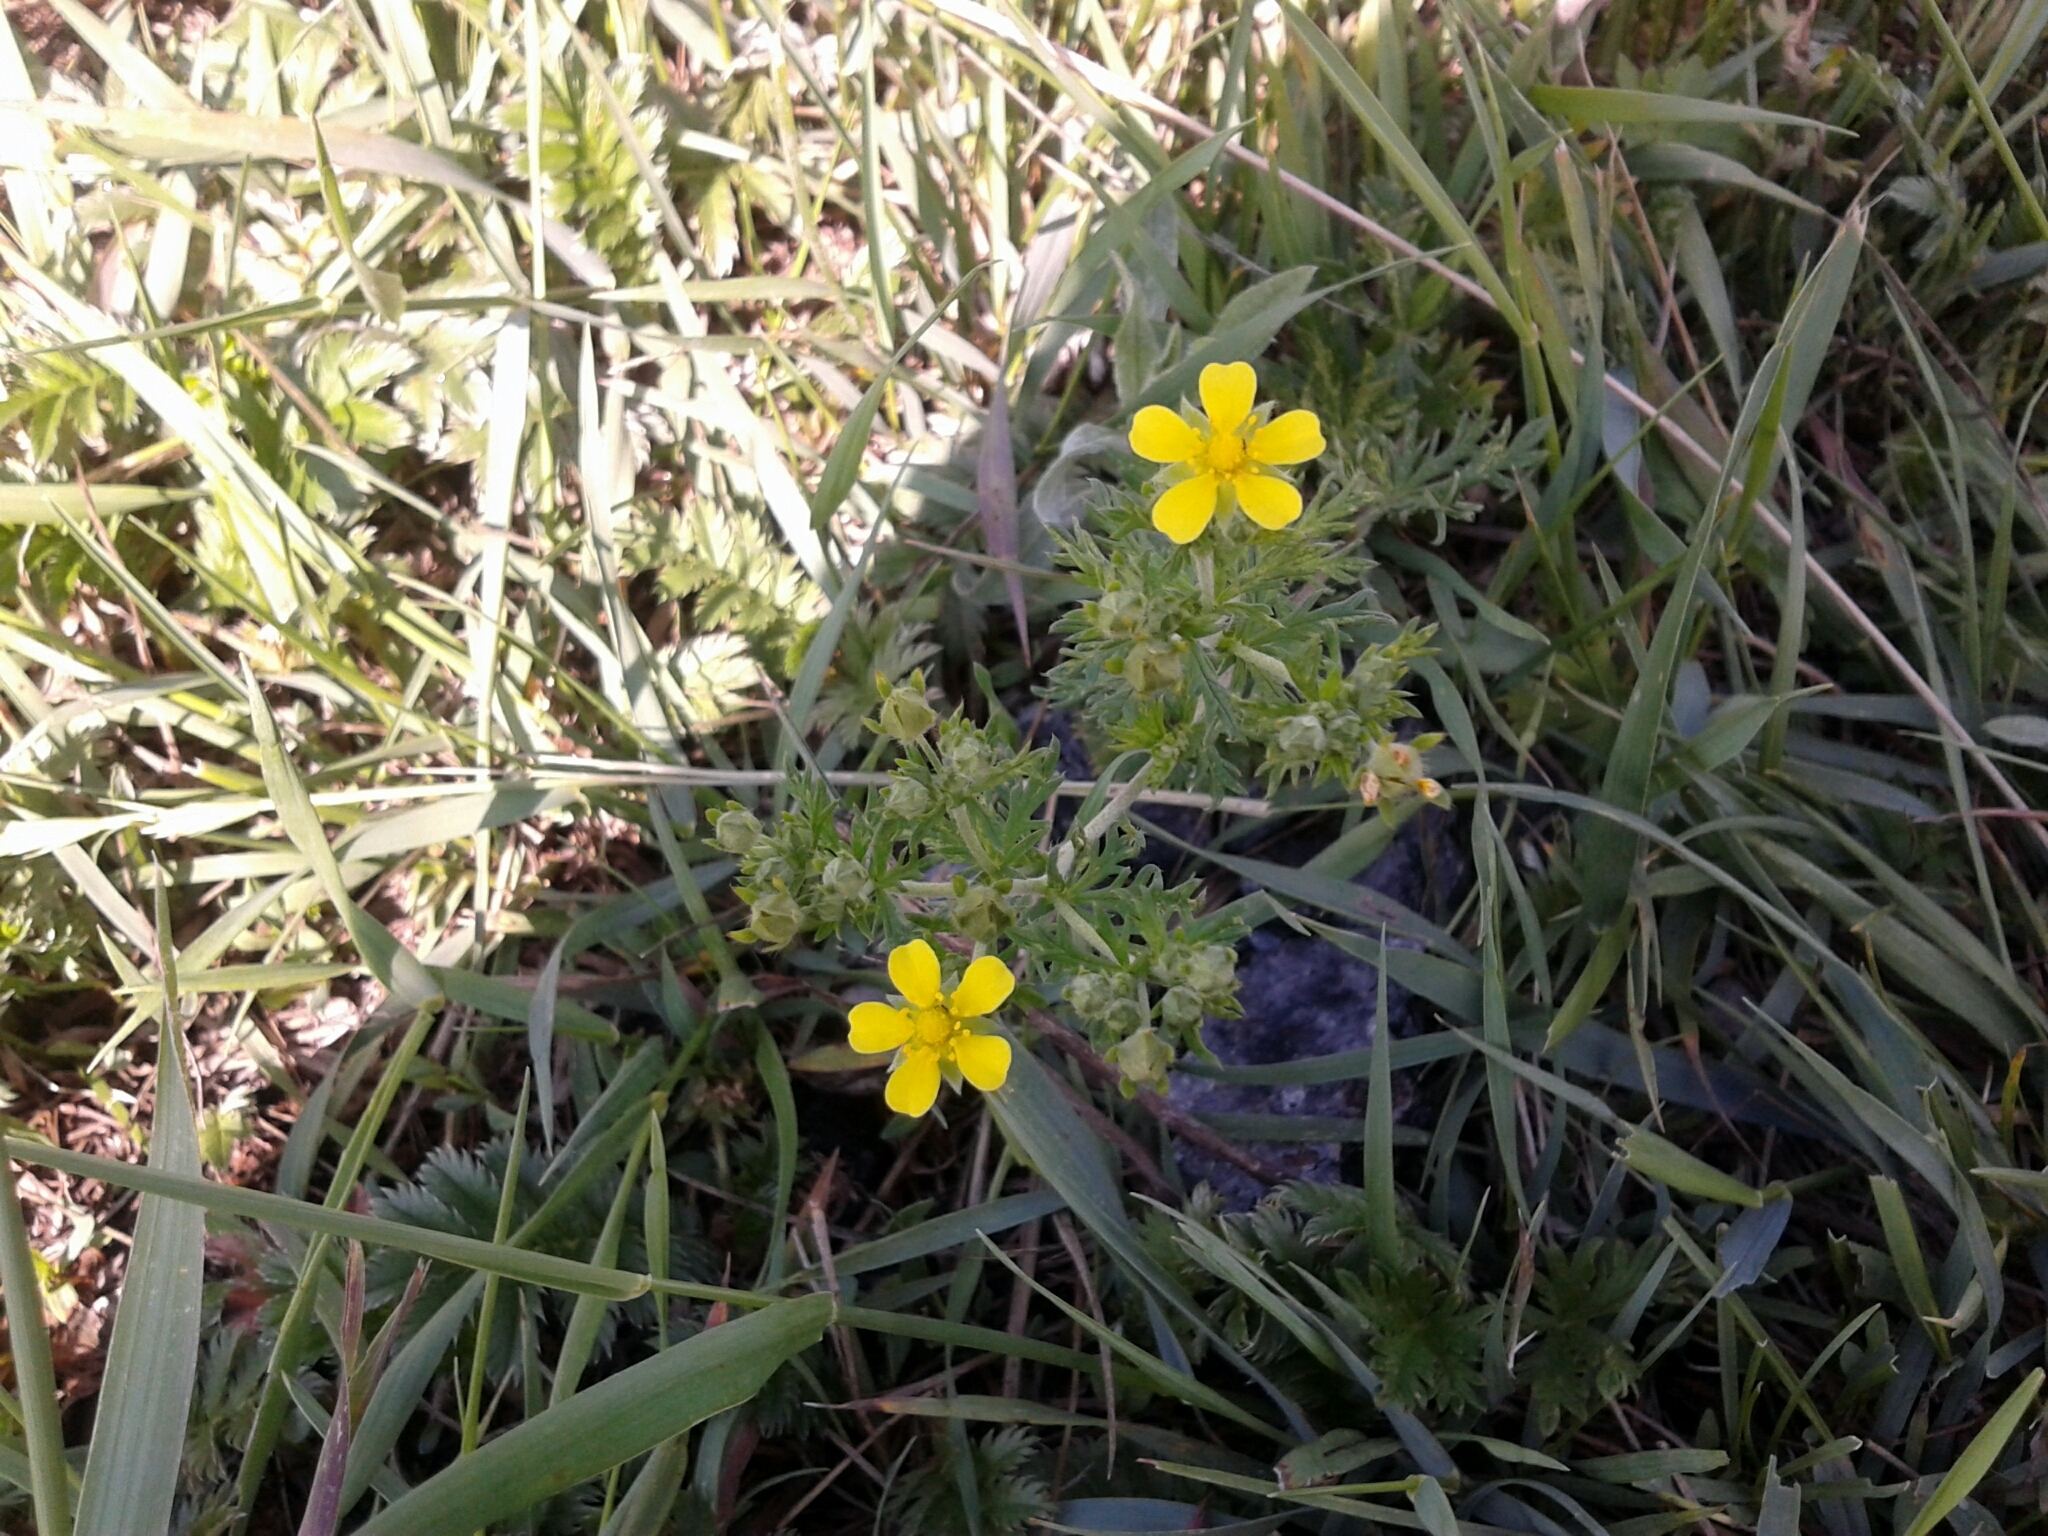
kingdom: Plantae
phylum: Tracheophyta
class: Magnoliopsida
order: Rosales
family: Rosaceae
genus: Potentilla
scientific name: Potentilla argentea
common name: Hoary cinquefoil
